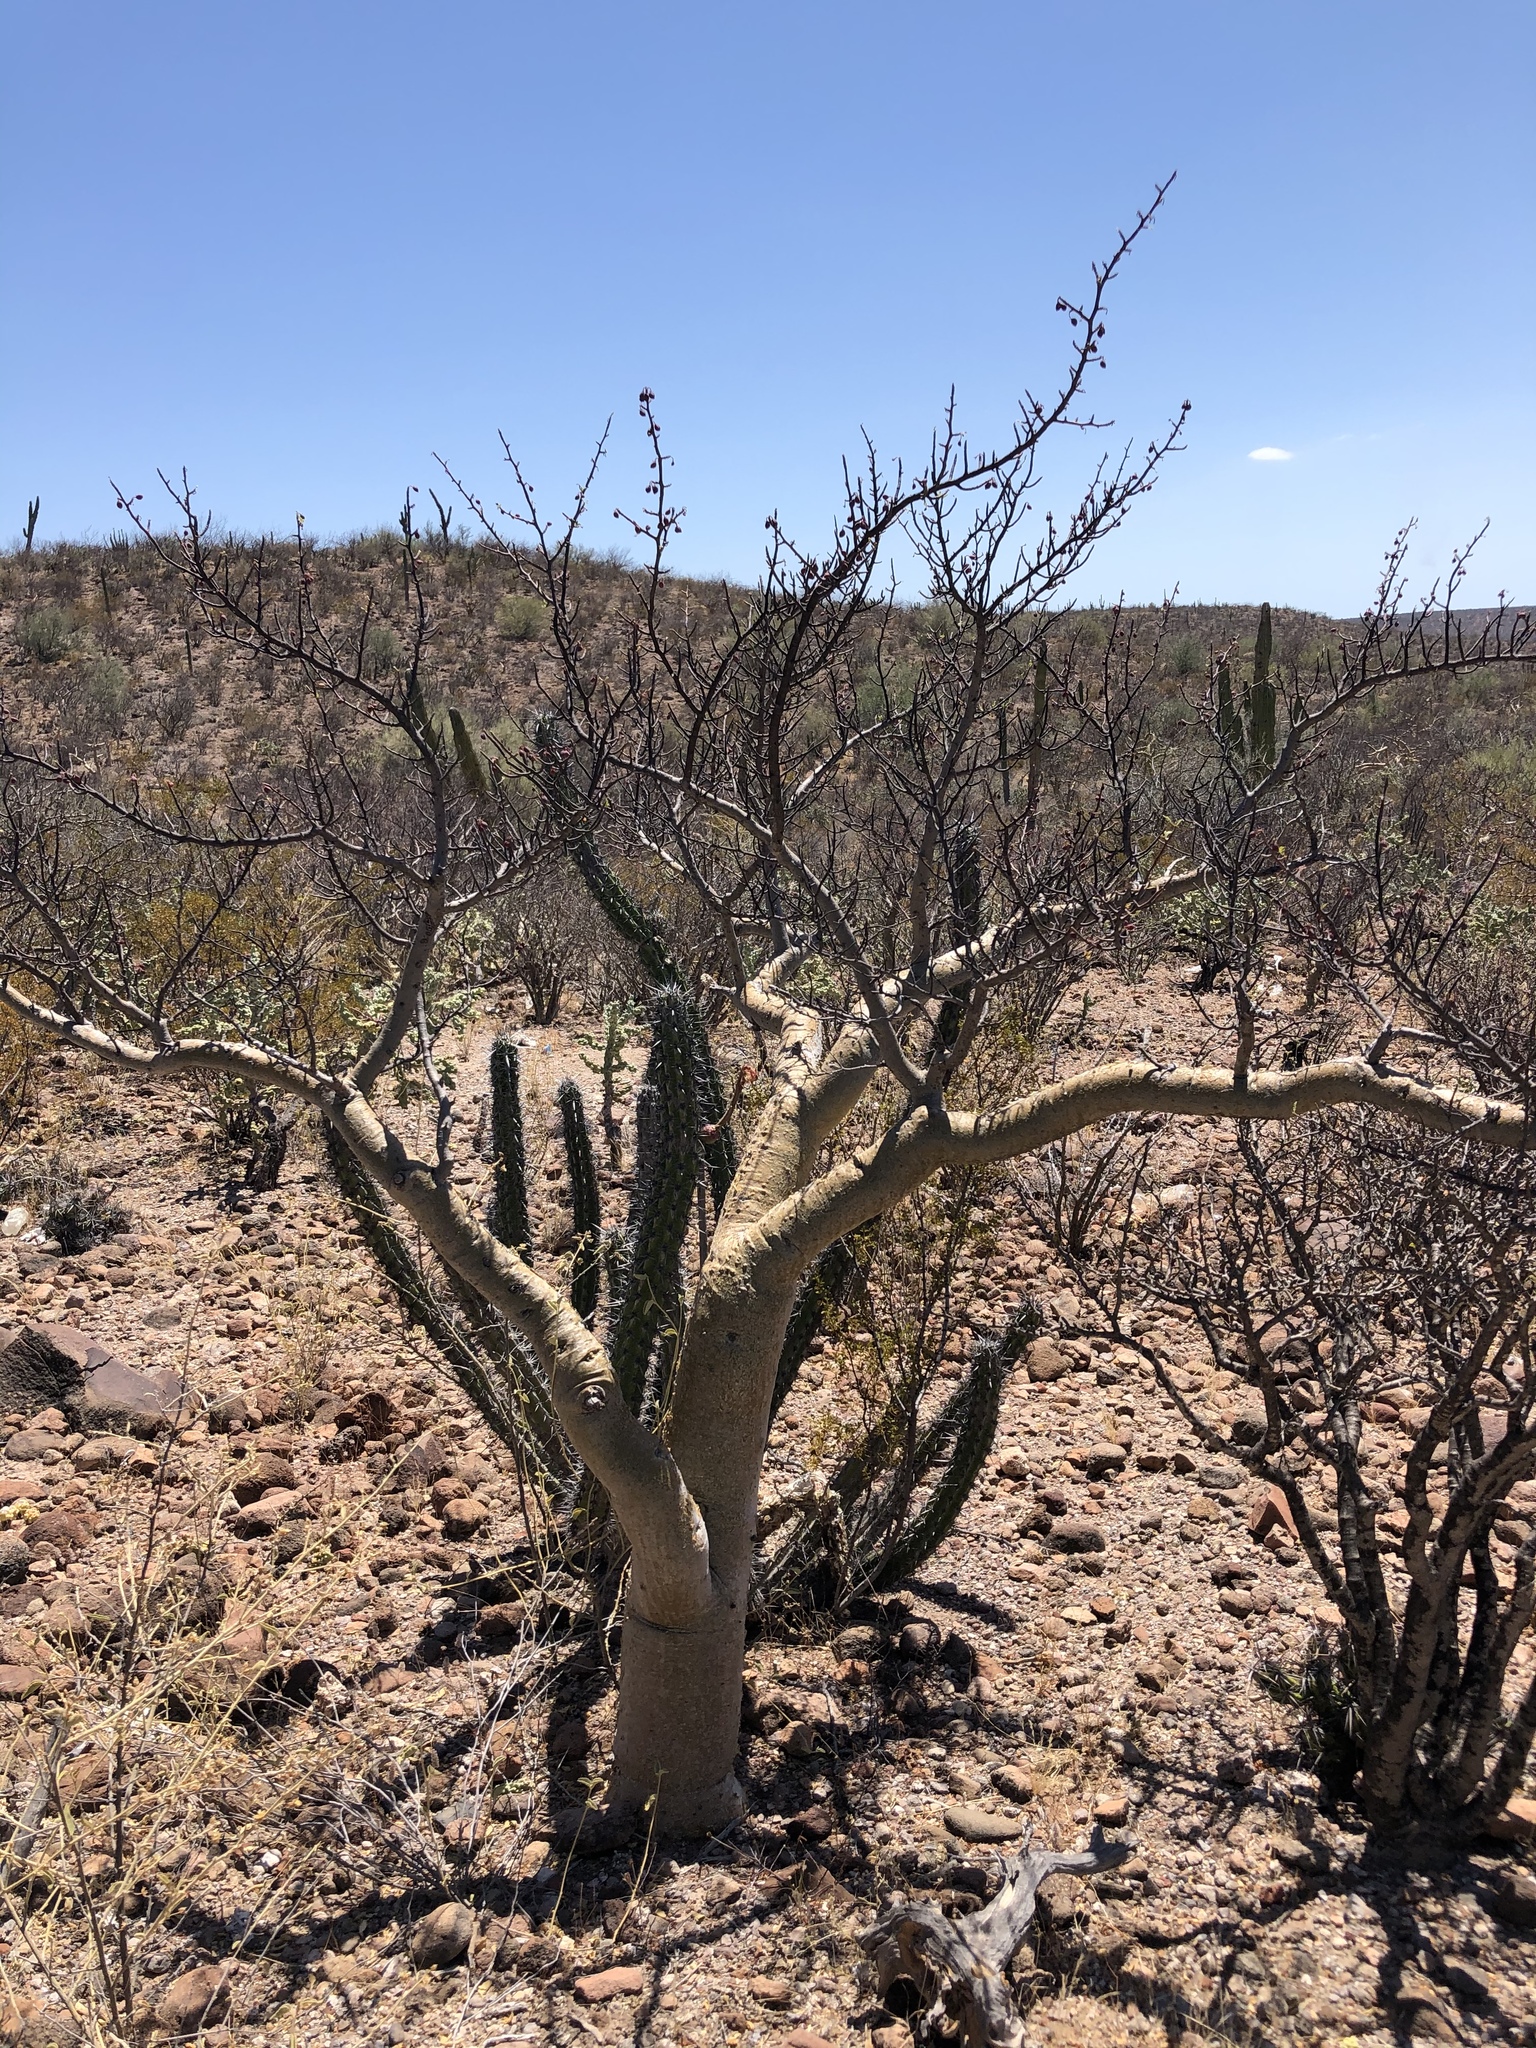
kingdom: Plantae
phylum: Tracheophyta
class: Magnoliopsida
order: Sapindales
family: Burseraceae
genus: Bursera
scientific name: Bursera microphylla
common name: Elephant tree
